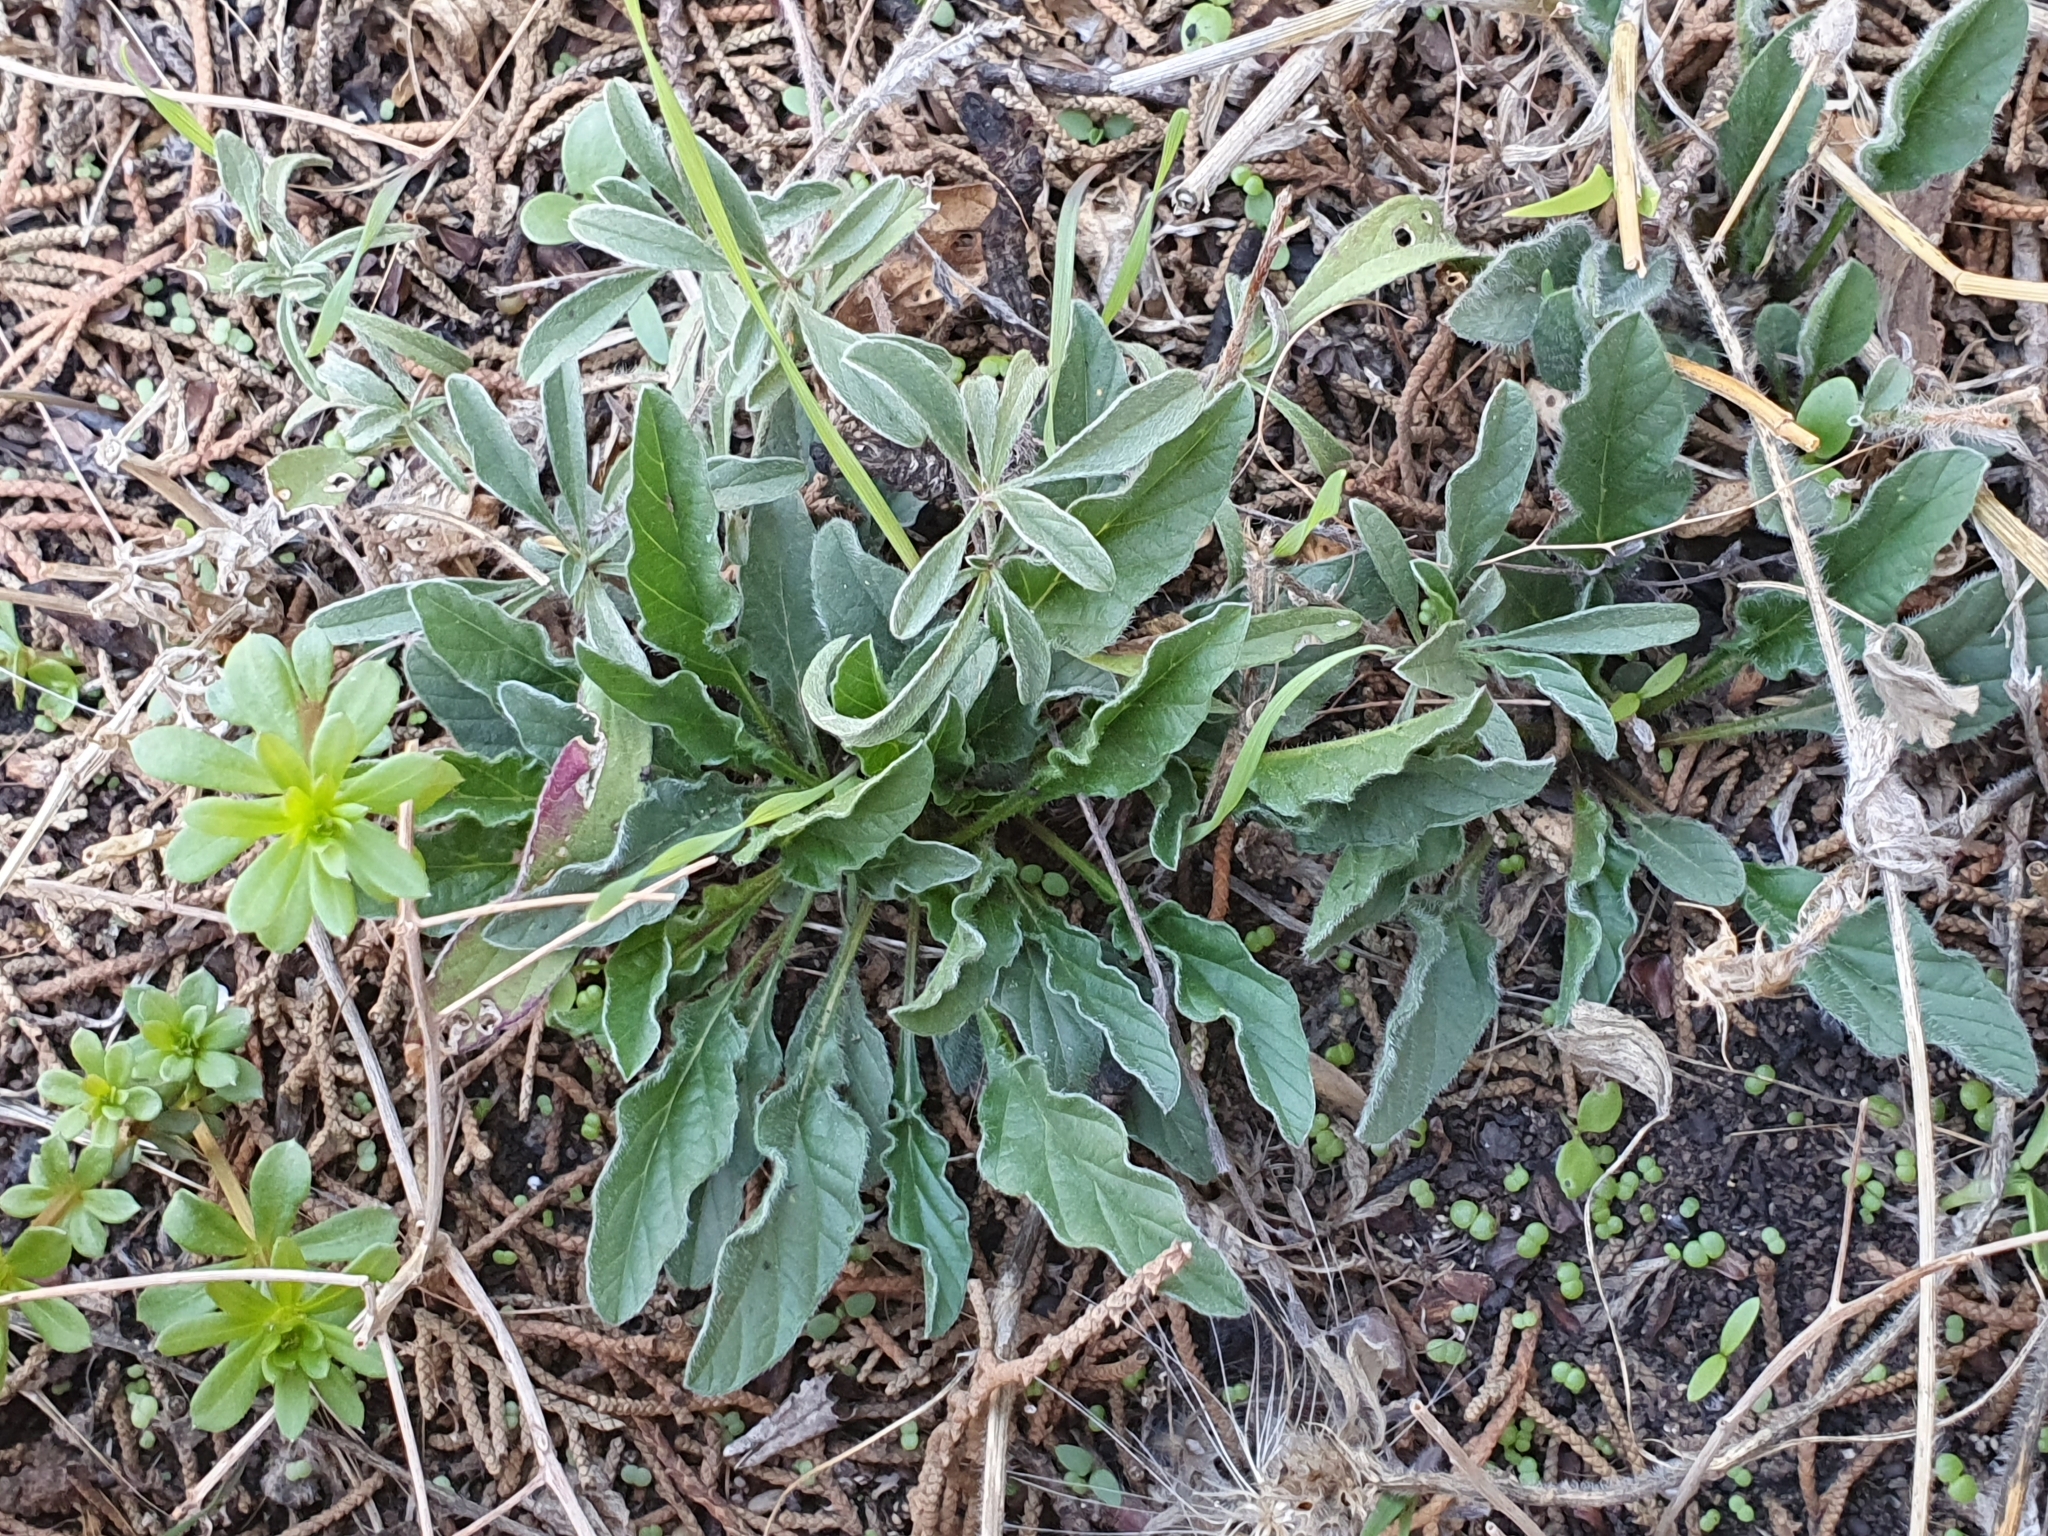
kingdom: Plantae
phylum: Tracheophyta
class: Magnoliopsida
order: Solanales
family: Convolvulaceae
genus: Convolvulus
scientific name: Convolvulus sabatius
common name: Ground blue-convolvulus
